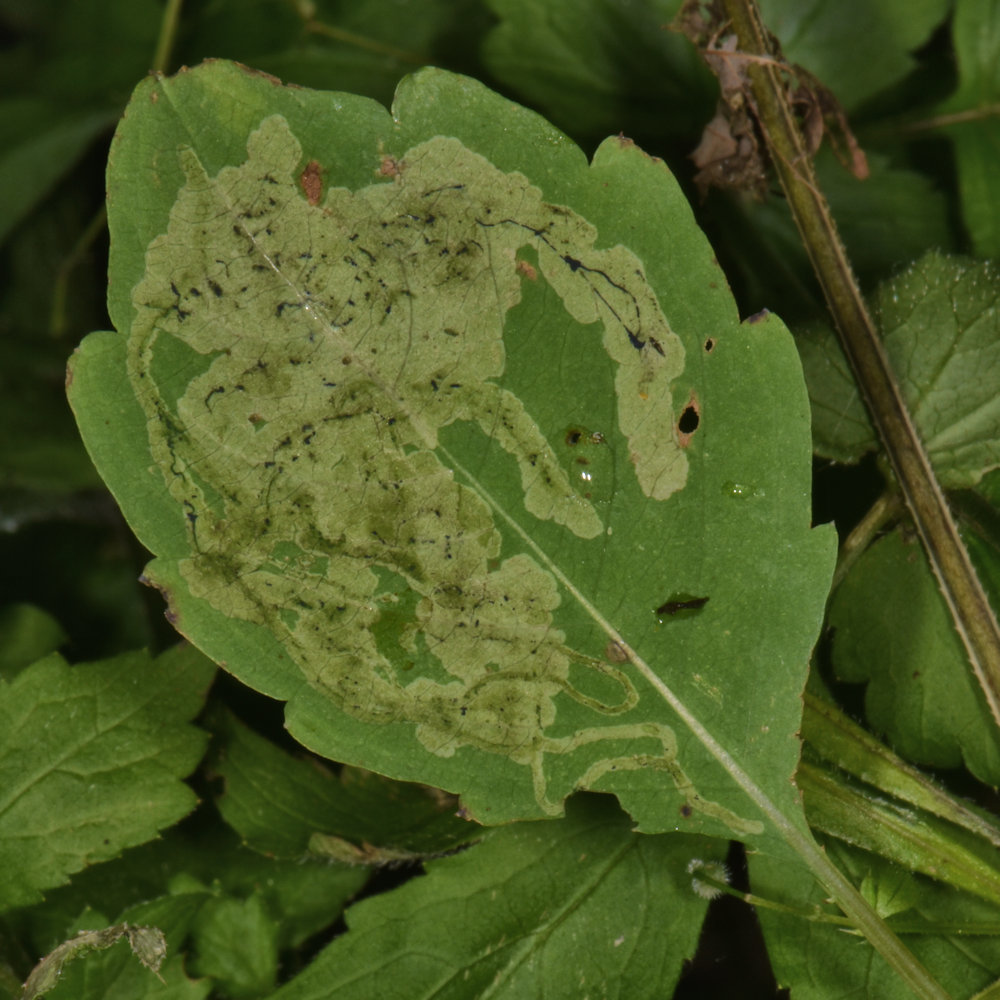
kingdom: Animalia
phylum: Arthropoda
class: Insecta
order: Diptera
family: Agromyzidae
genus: Phytoliriomyza
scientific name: Phytoliriomyza melampyga
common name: Jewelweed leaf-miner fly
